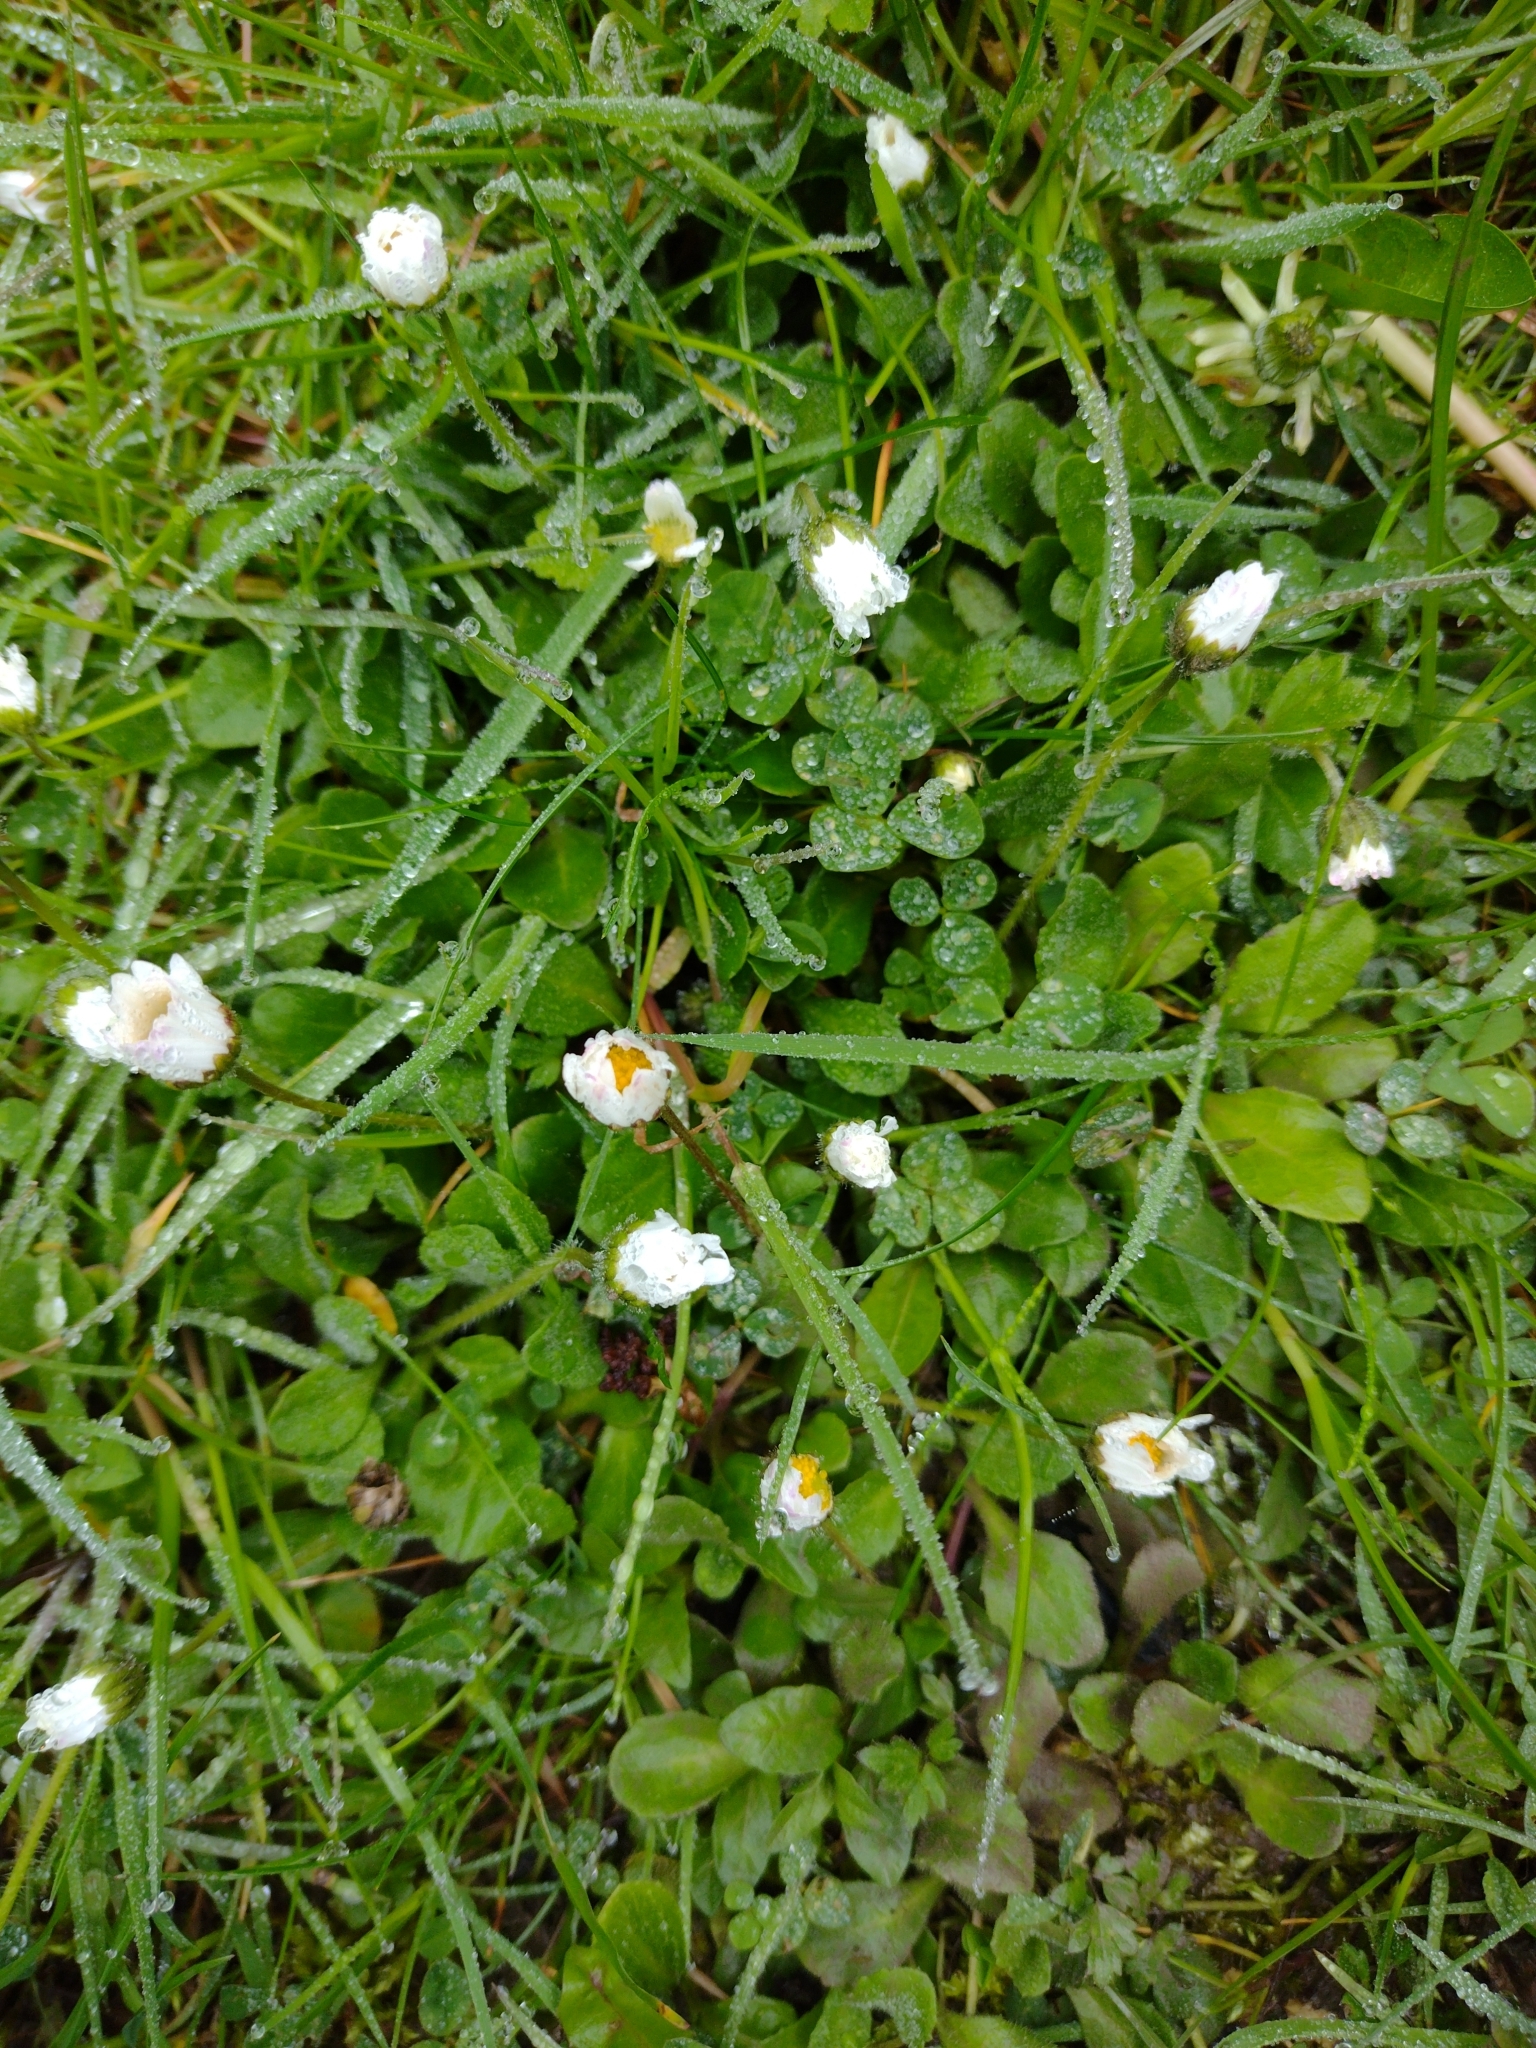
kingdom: Plantae
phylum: Tracheophyta
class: Magnoliopsida
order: Asterales
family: Asteraceae
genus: Bellis
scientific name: Bellis perennis
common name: Lawndaisy
